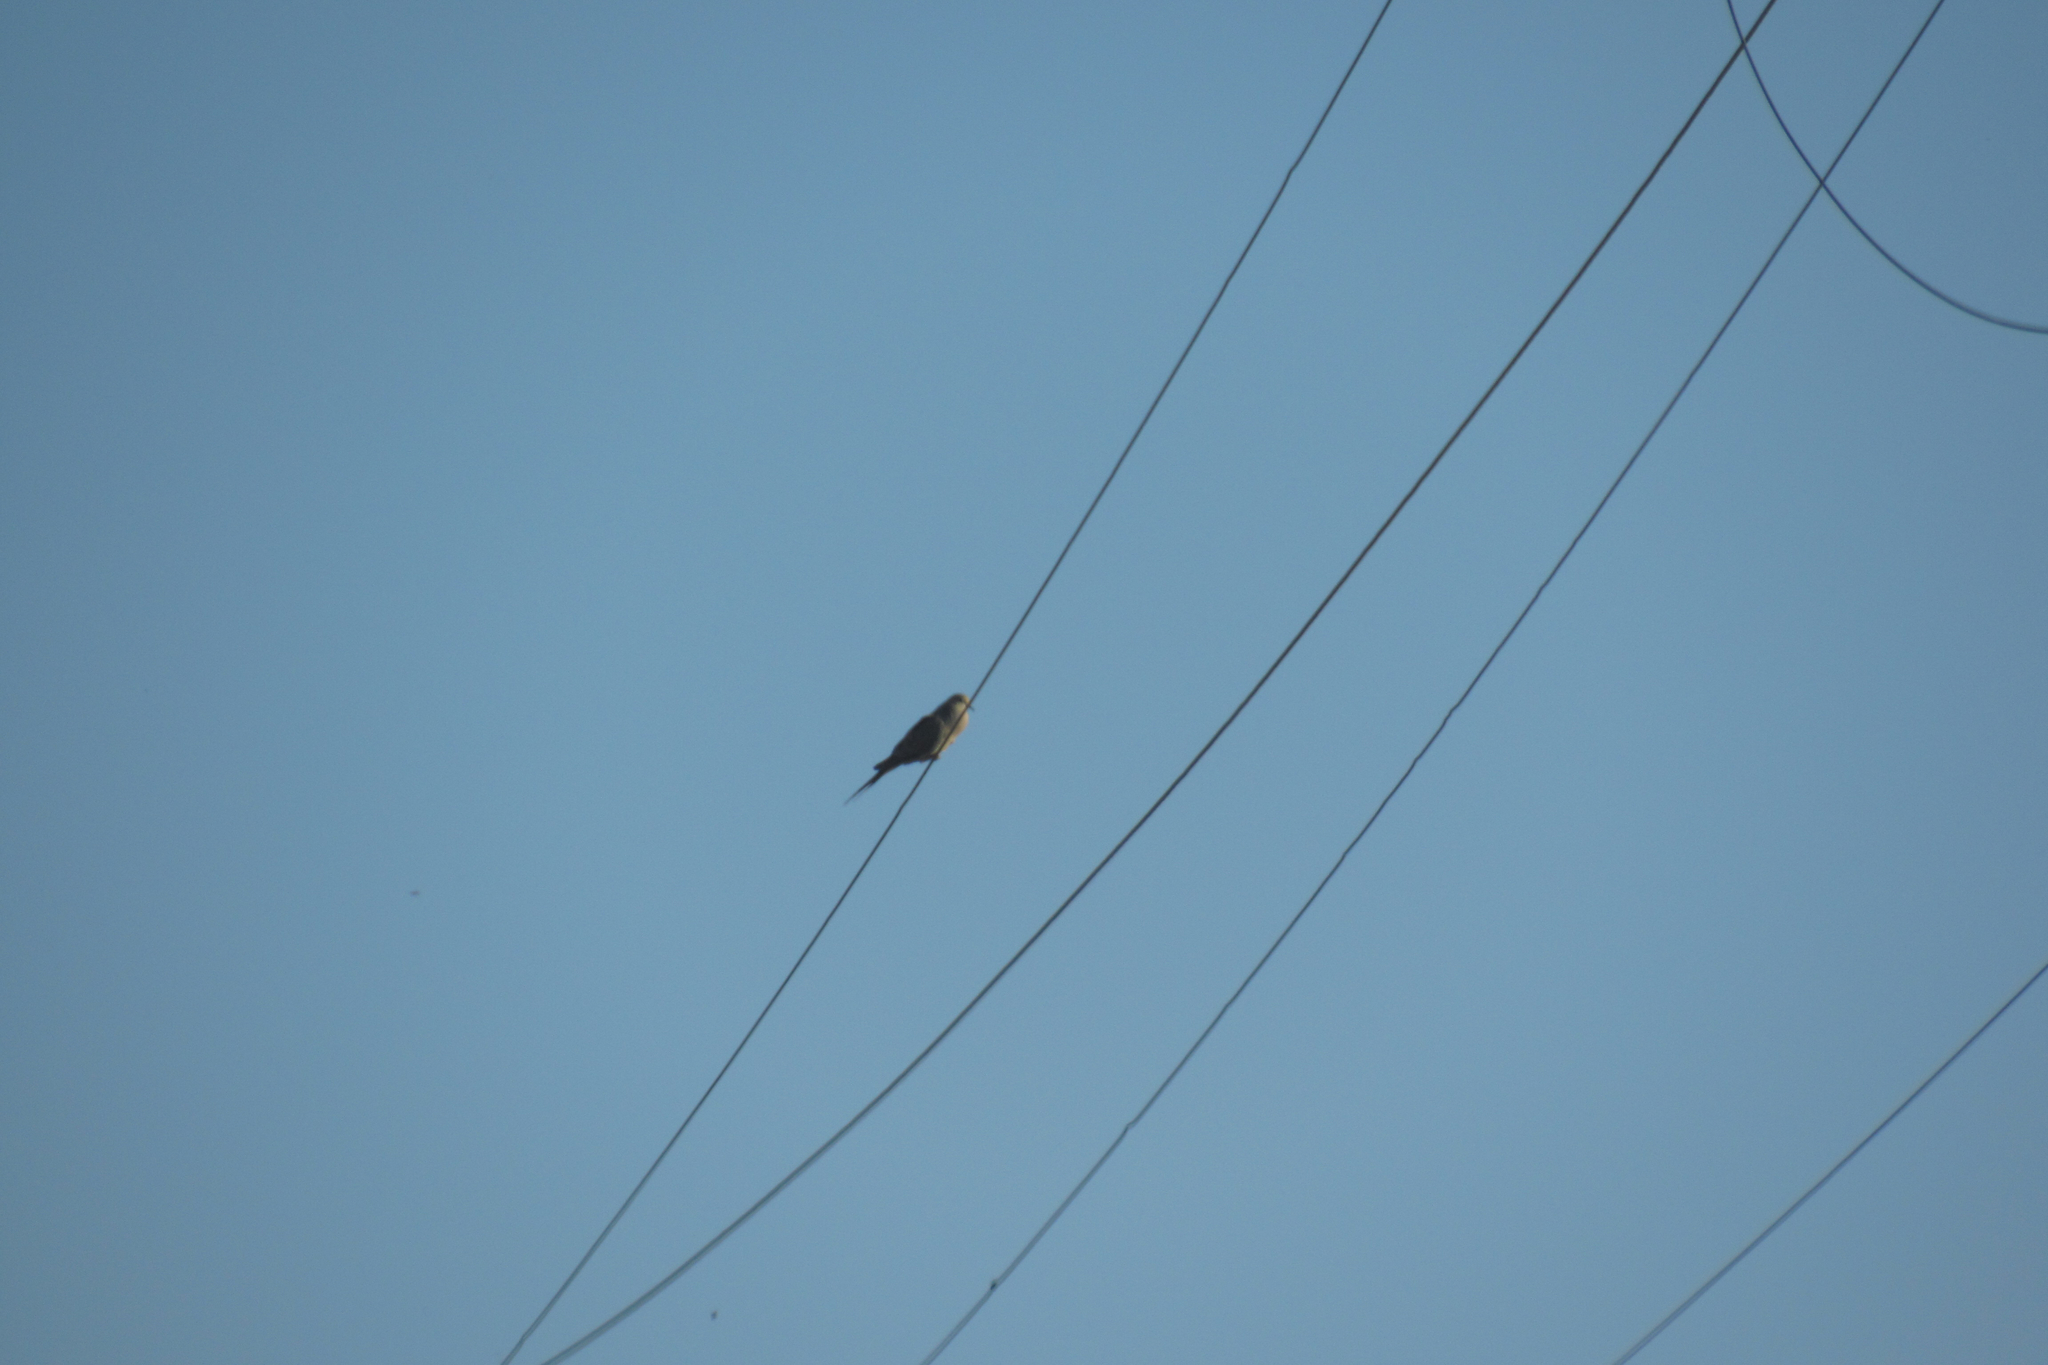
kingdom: Animalia
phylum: Chordata
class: Aves
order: Columbiformes
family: Columbidae
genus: Zenaida
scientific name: Zenaida macroura
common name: Mourning dove
